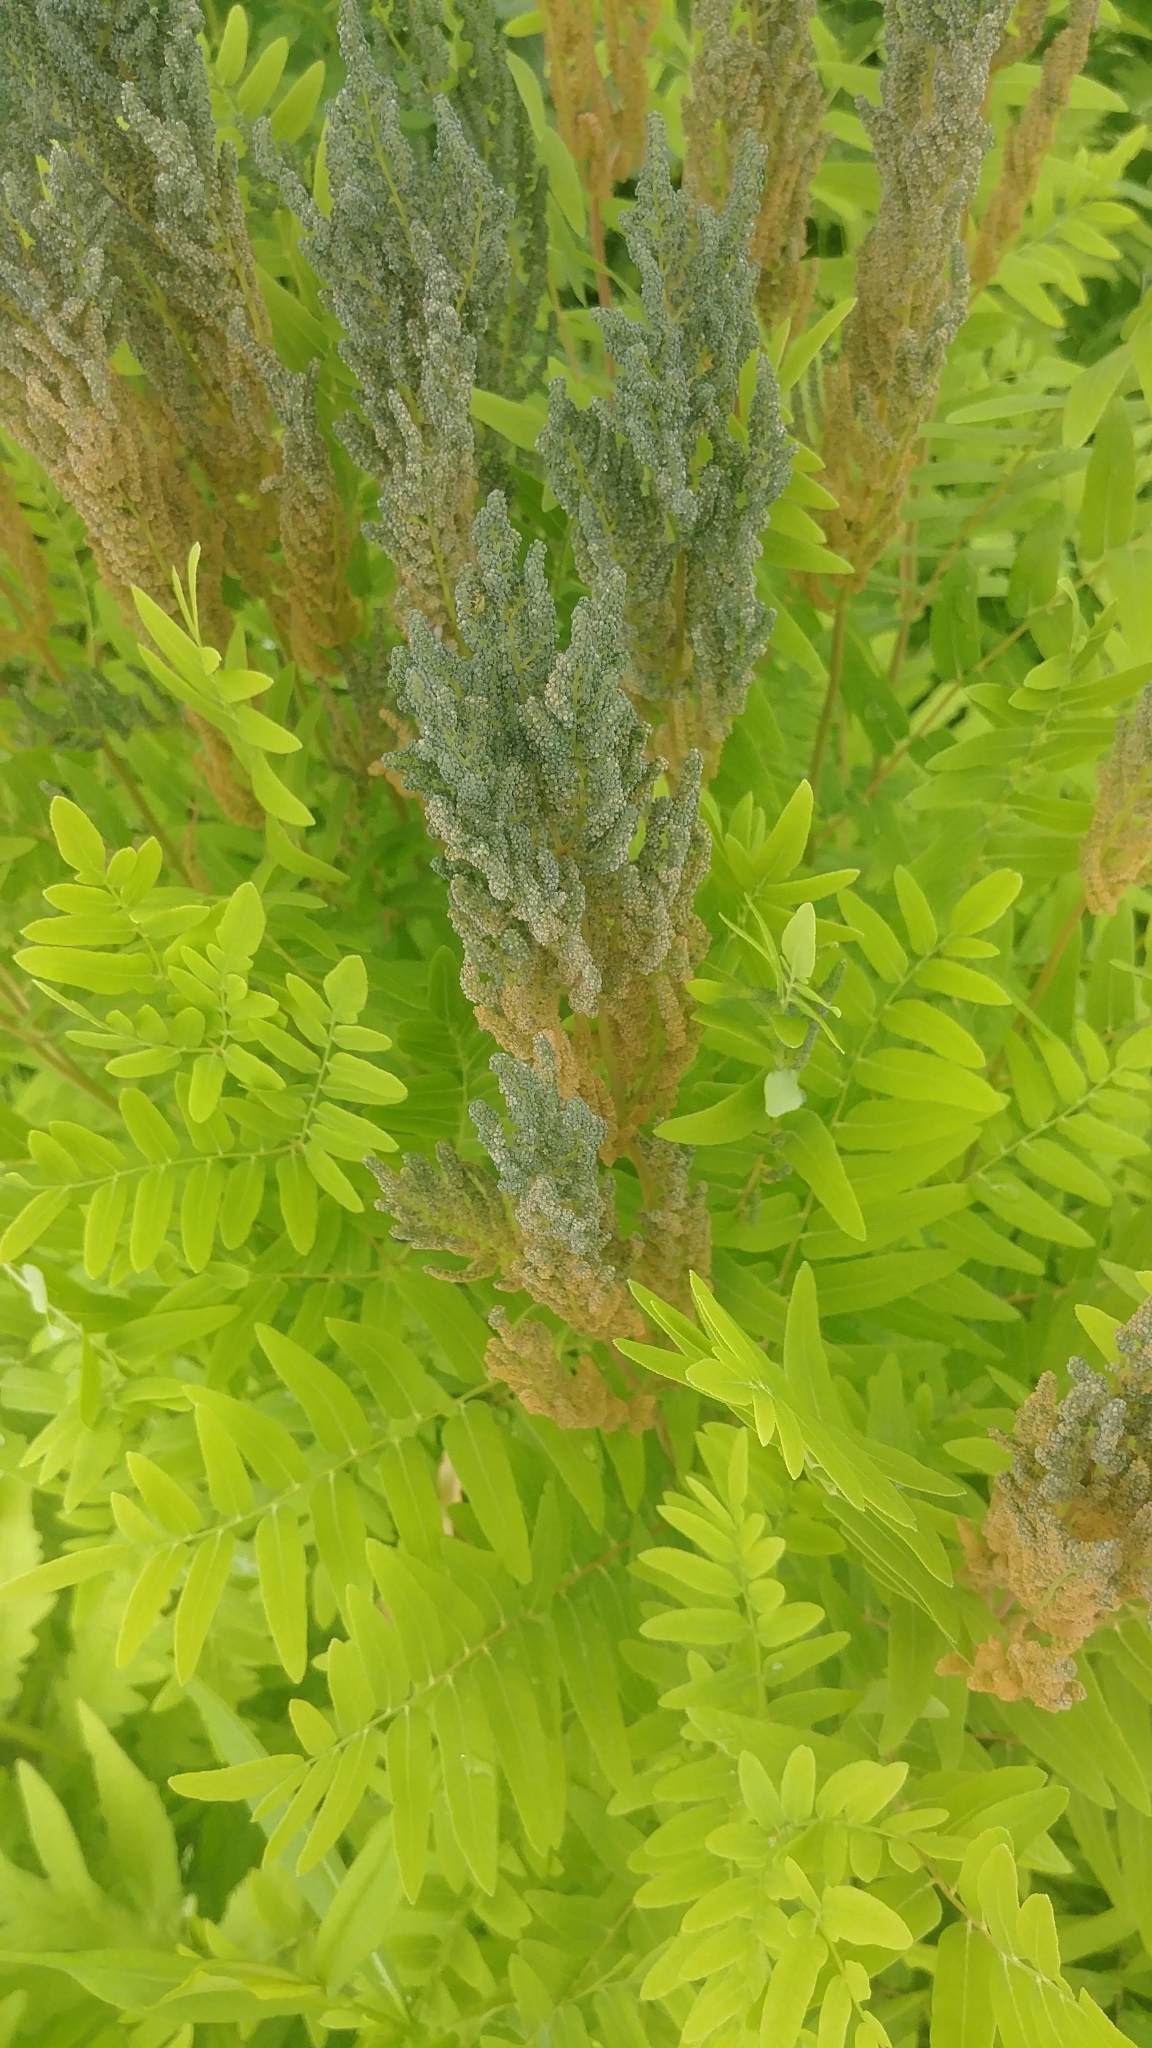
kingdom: Plantae
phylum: Tracheophyta
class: Polypodiopsida
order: Osmundales
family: Osmundaceae
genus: Osmunda
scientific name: Osmunda spectabilis
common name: American royal fern
